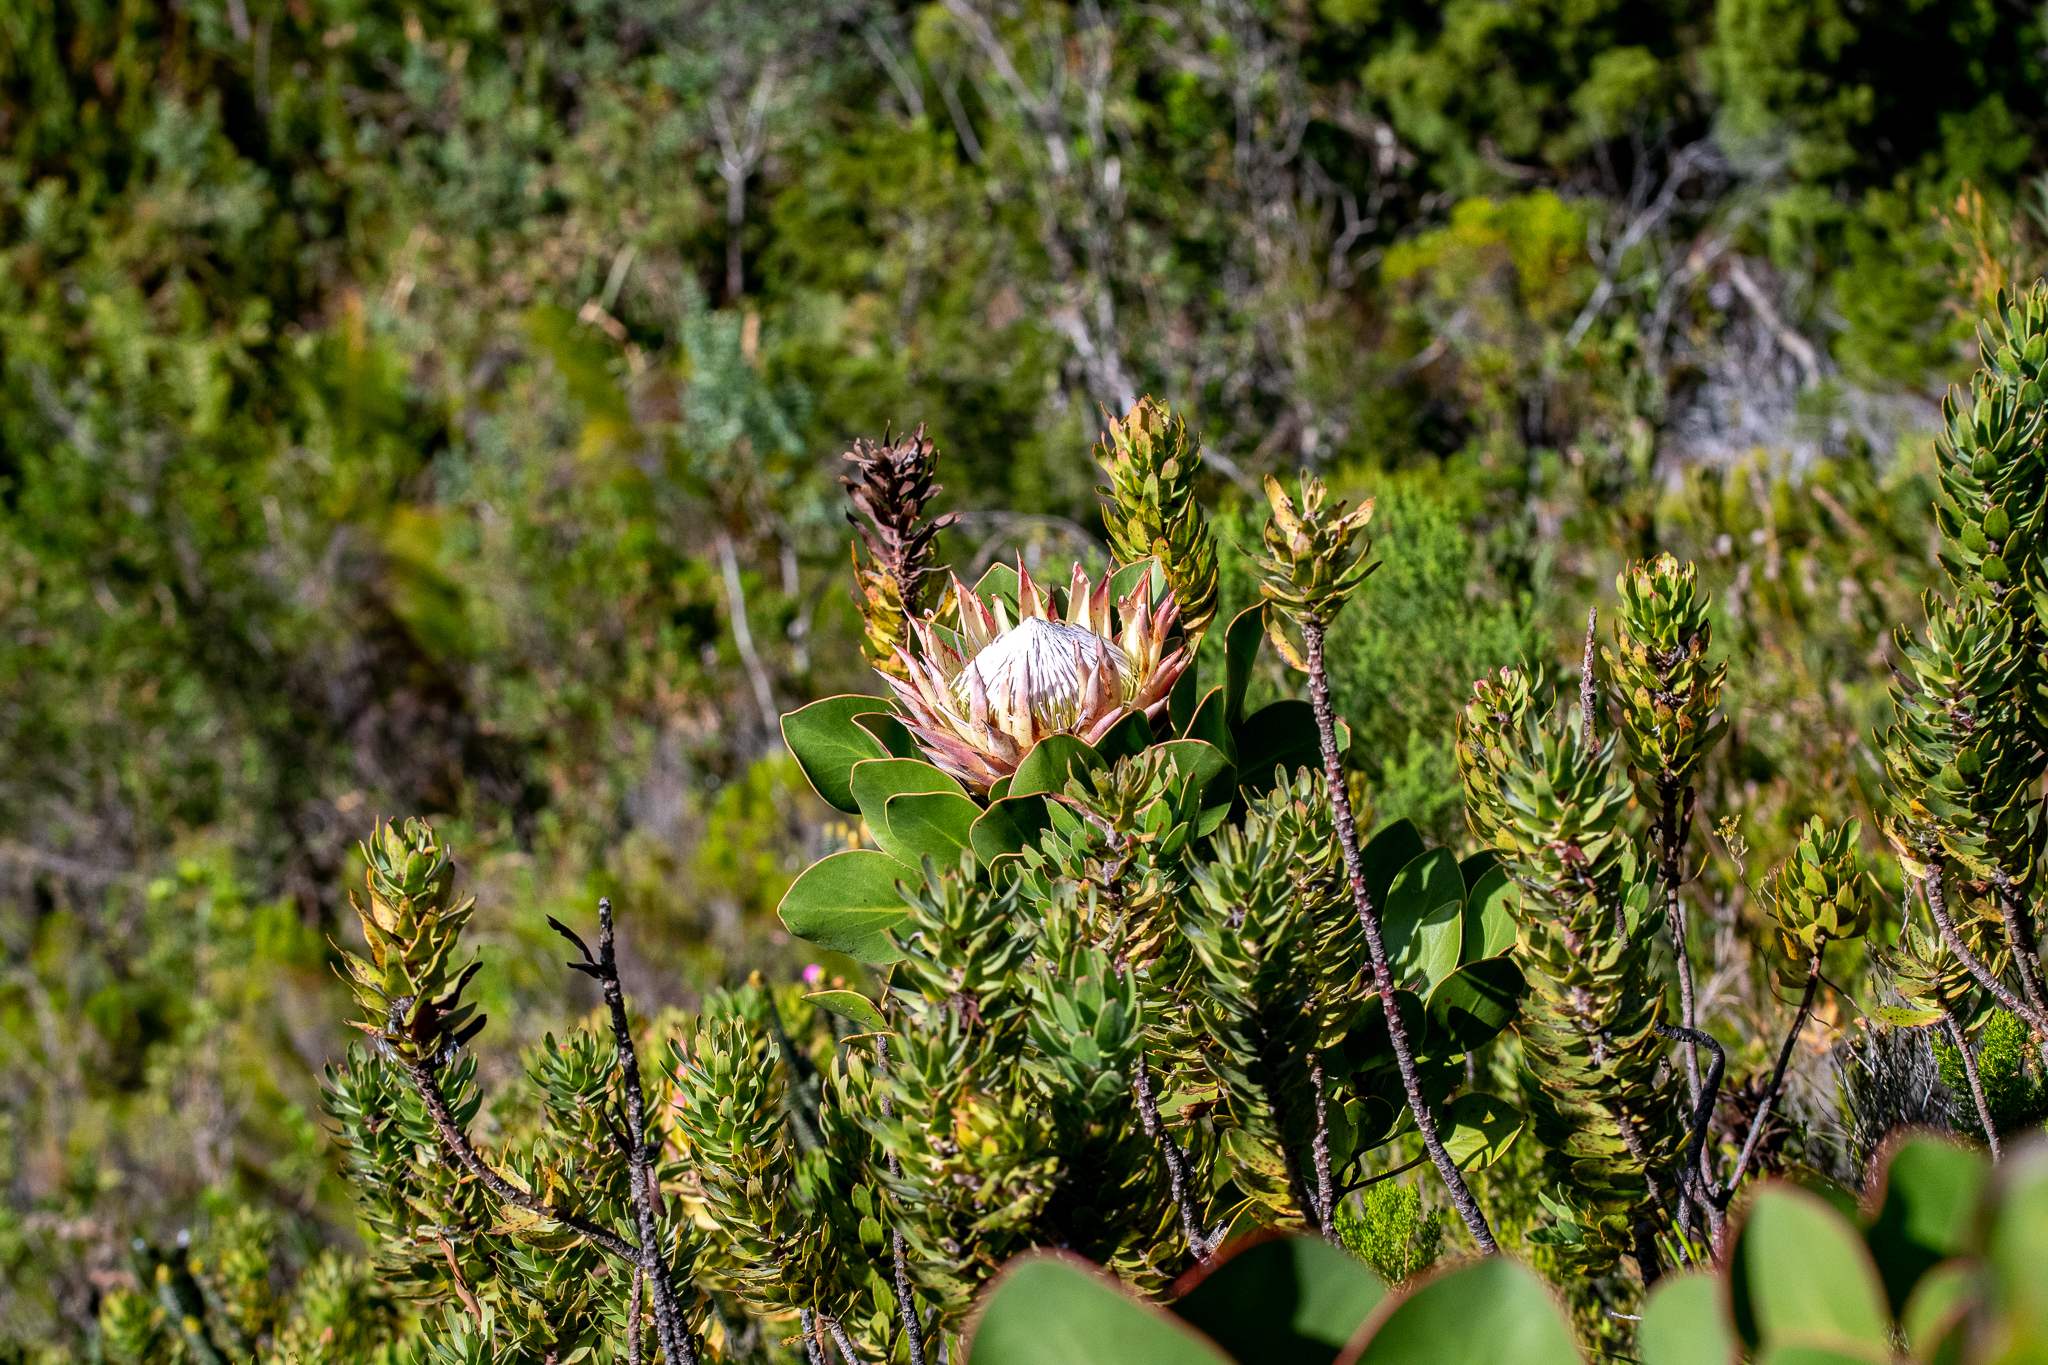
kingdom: Plantae
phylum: Tracheophyta
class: Magnoliopsida
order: Proteales
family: Proteaceae
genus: Protea
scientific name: Protea cynaroides
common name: King protea
